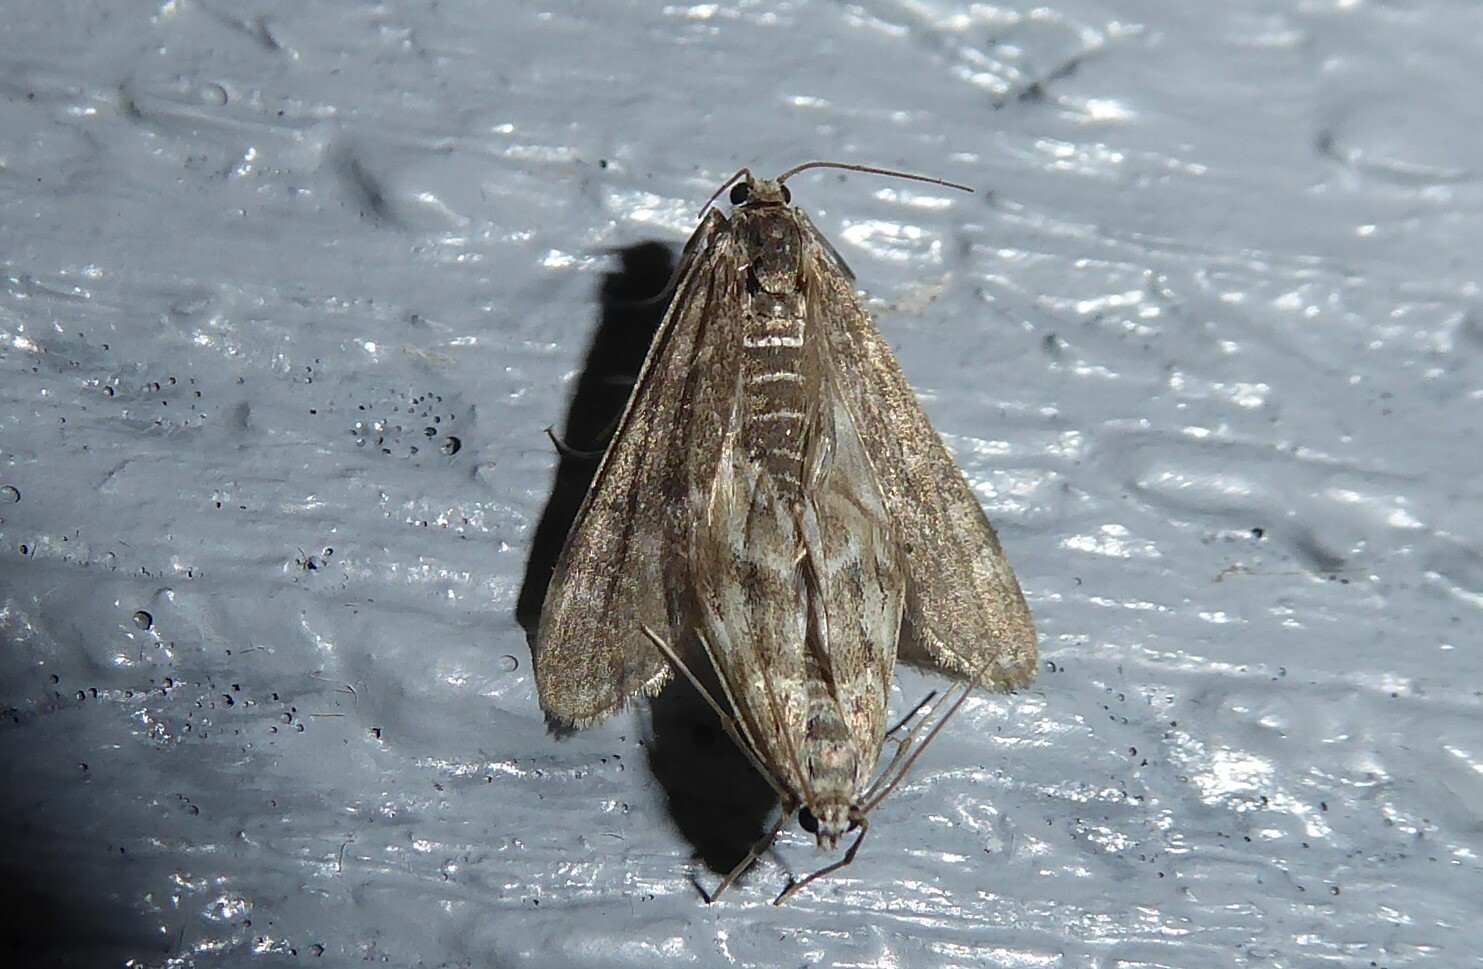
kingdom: Animalia
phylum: Arthropoda
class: Insecta
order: Lepidoptera
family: Crambidae
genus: Hygraula
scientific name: Hygraula nitens
